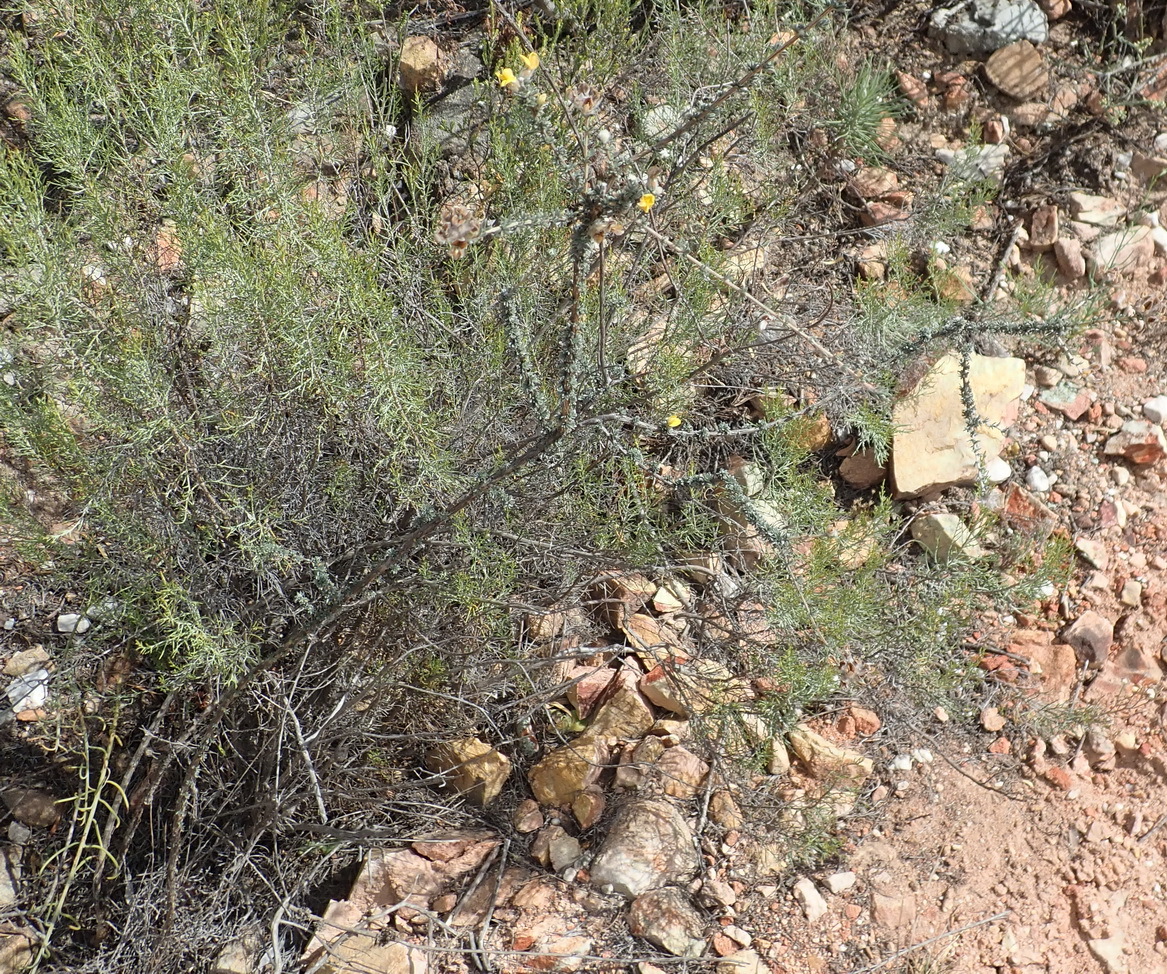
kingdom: Plantae
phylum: Tracheophyta
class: Magnoliopsida
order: Fabales
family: Fabaceae
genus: Aspalathus
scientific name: Aspalathus quinquefolia
